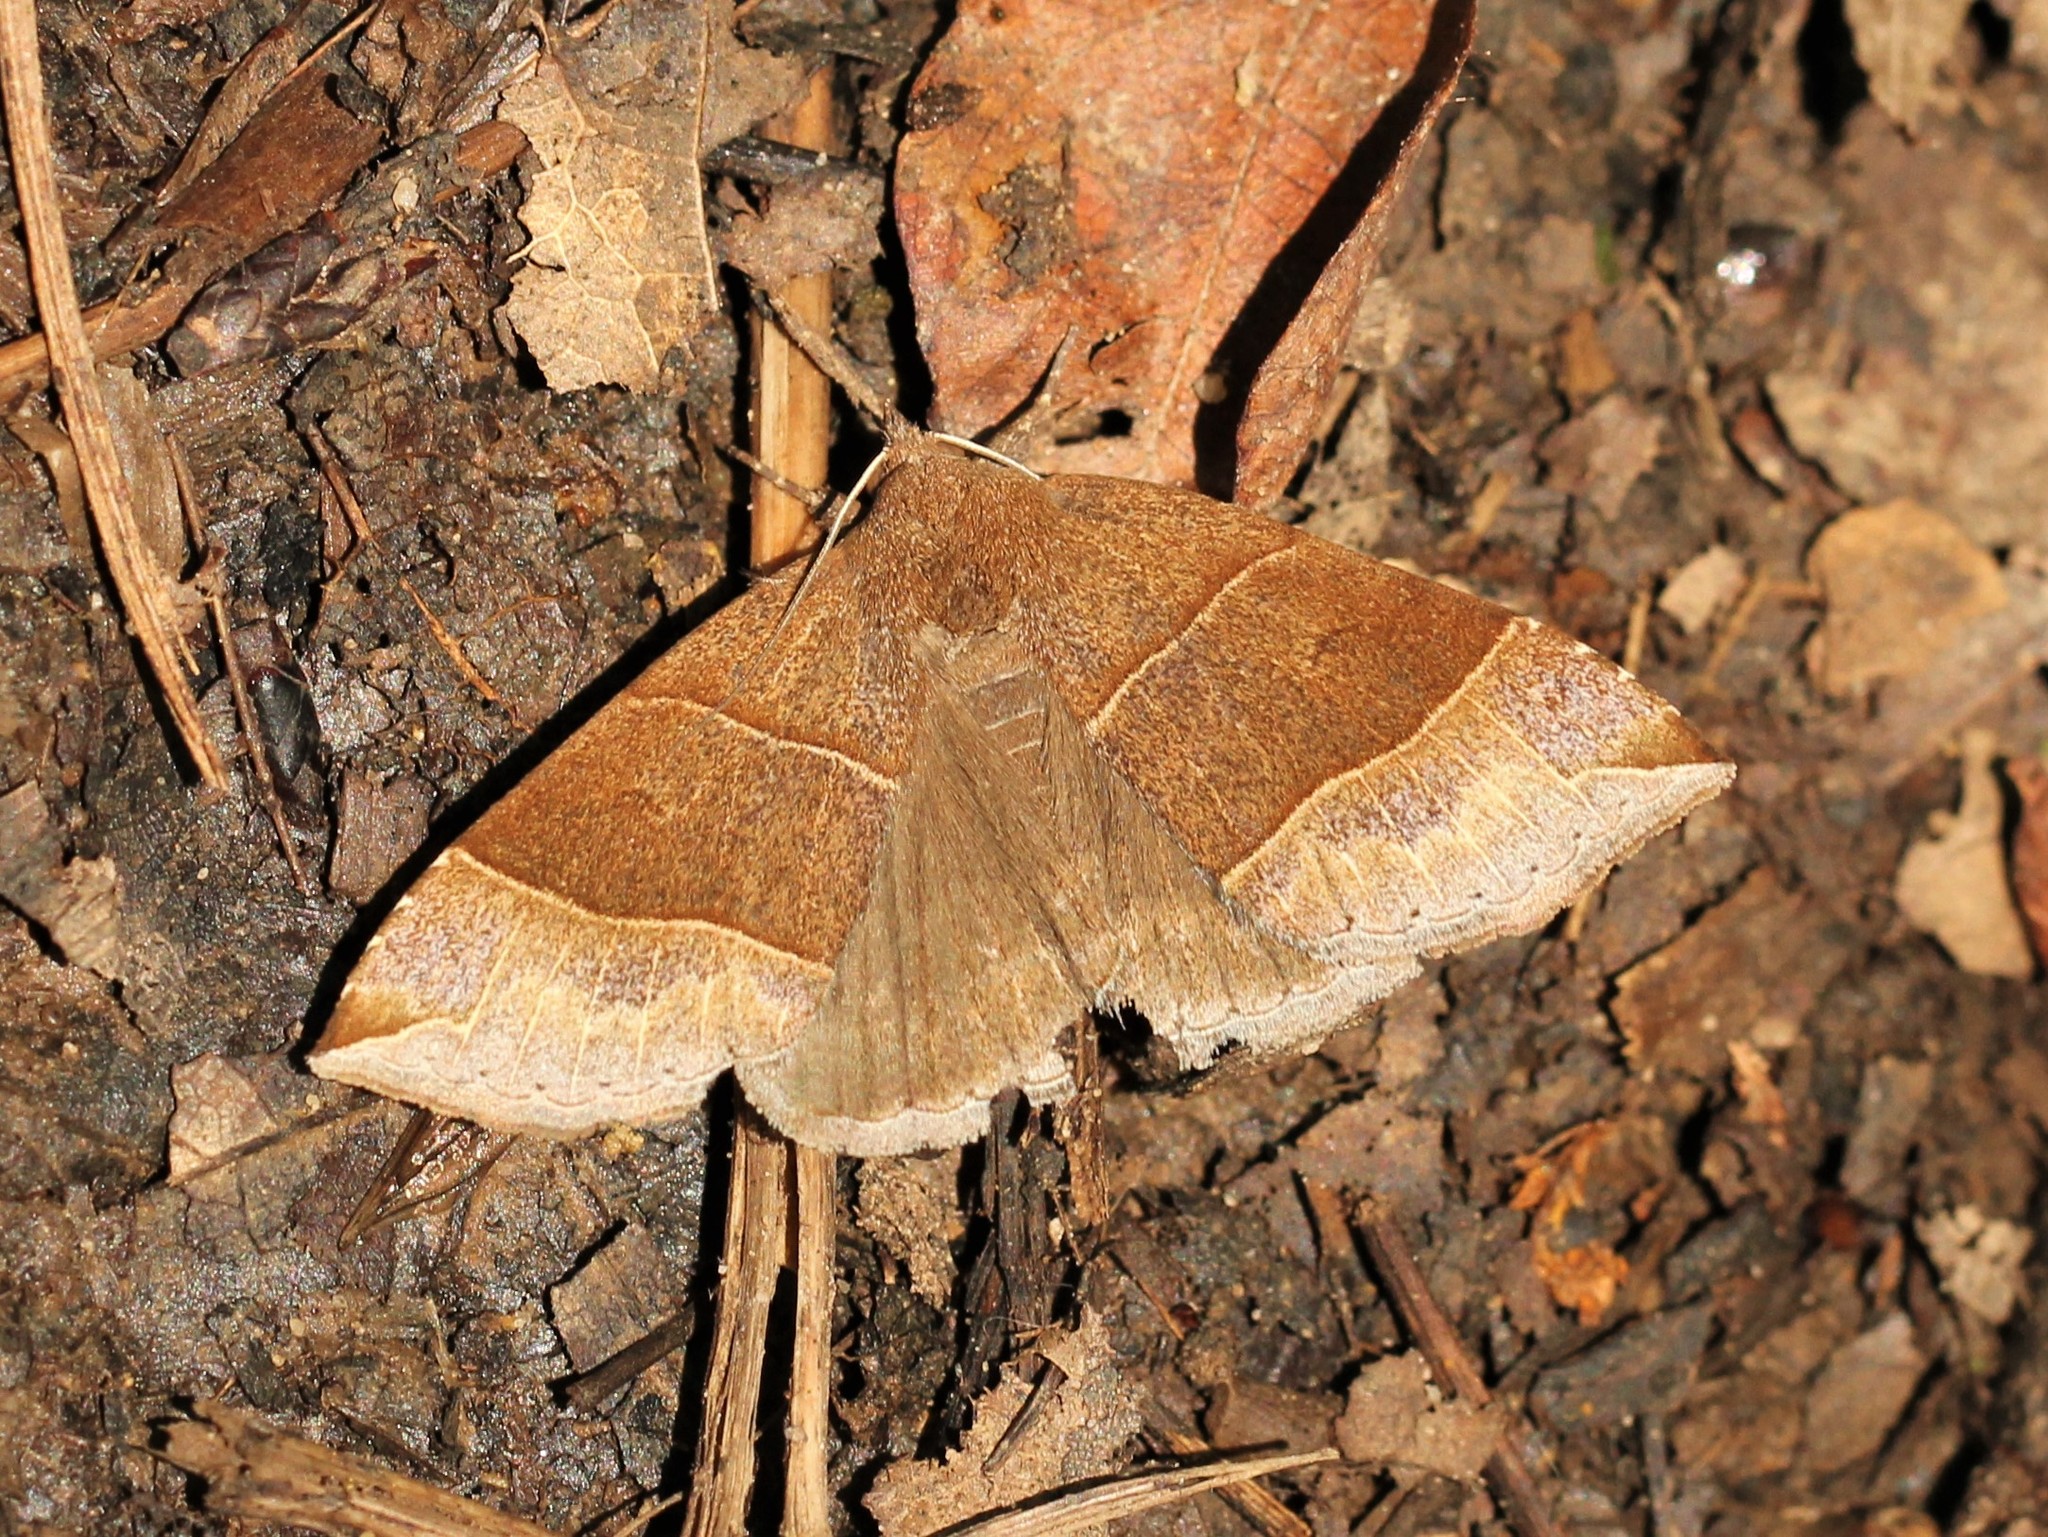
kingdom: Animalia
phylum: Arthropoda
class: Insecta
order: Lepidoptera
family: Erebidae
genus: Parallelia
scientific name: Parallelia bistriaris
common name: Maple looper moth
